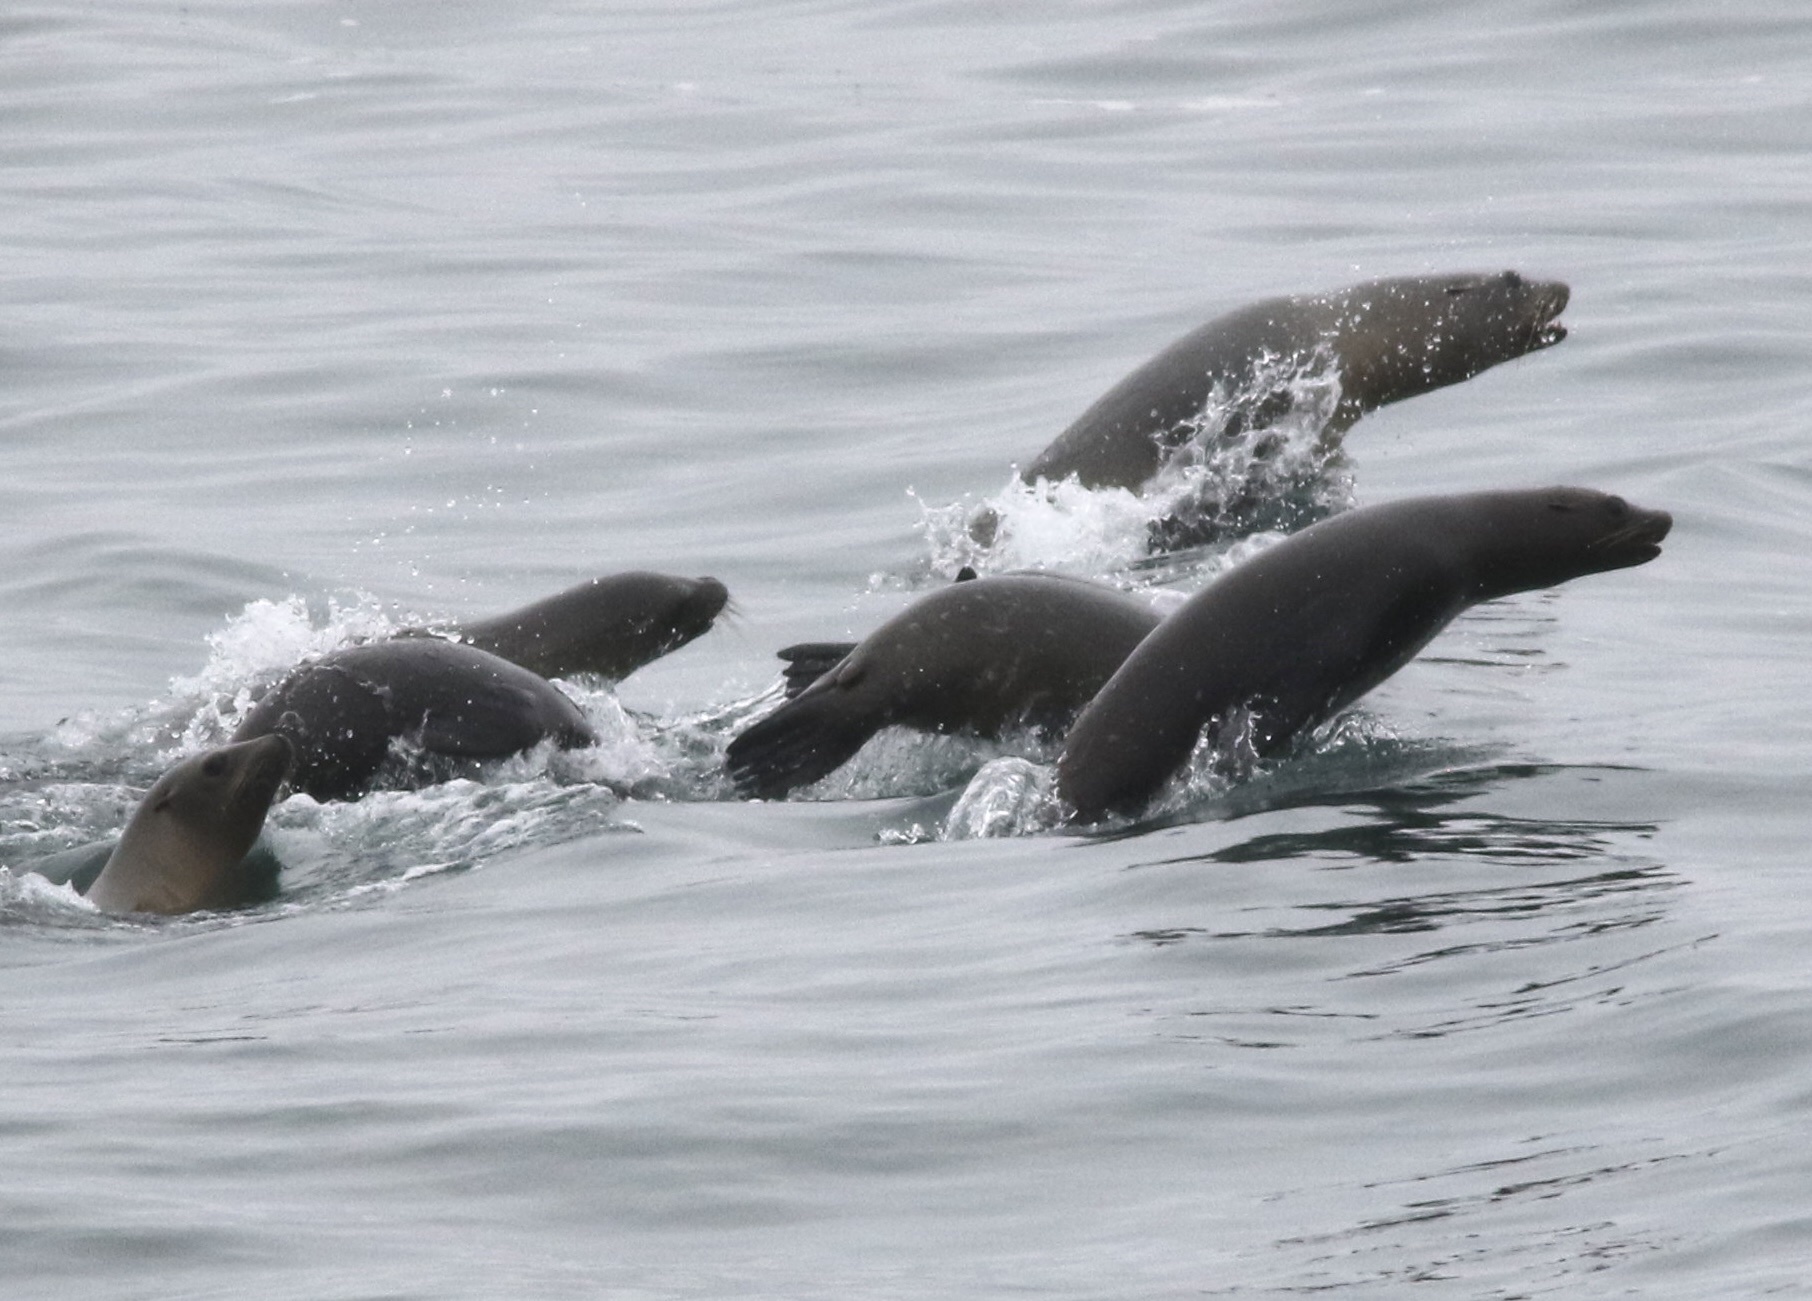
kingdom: Animalia
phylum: Chordata
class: Mammalia
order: Carnivora
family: Otariidae
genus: Zalophus
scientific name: Zalophus californianus
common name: California sea lion
